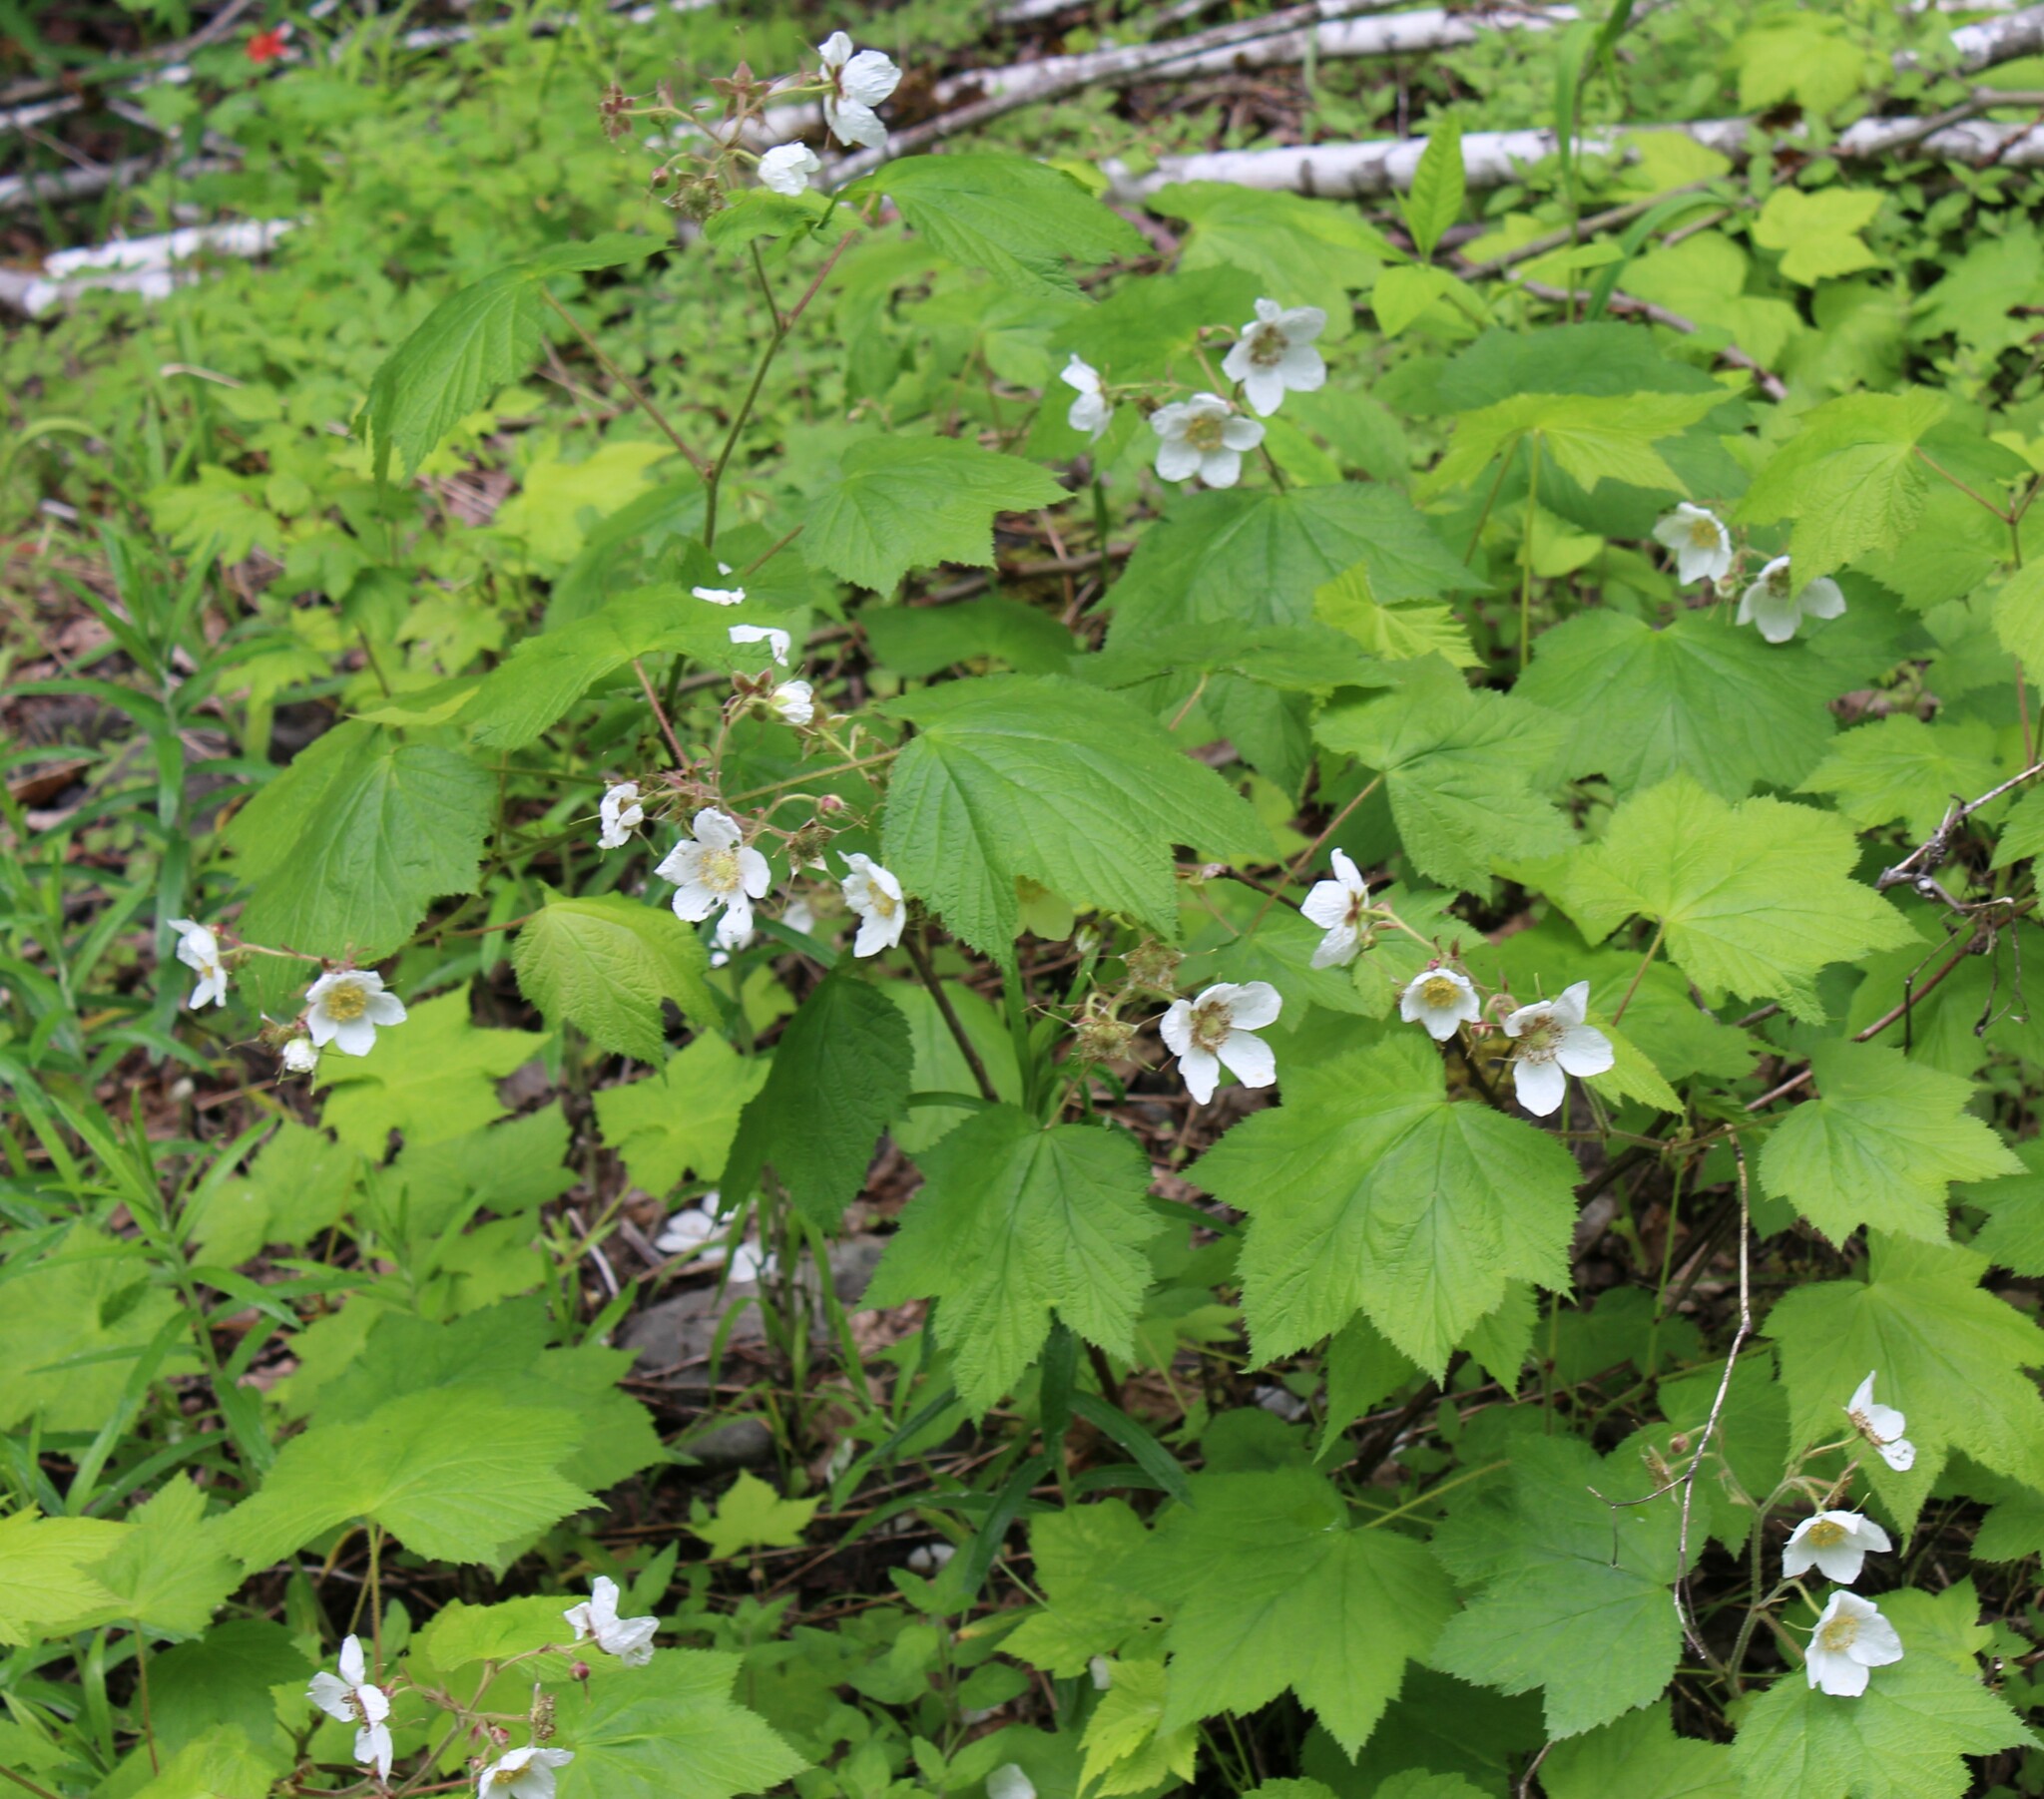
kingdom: Plantae
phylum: Tracheophyta
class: Magnoliopsida
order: Rosales
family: Rosaceae
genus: Rubus
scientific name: Rubus parviflorus
